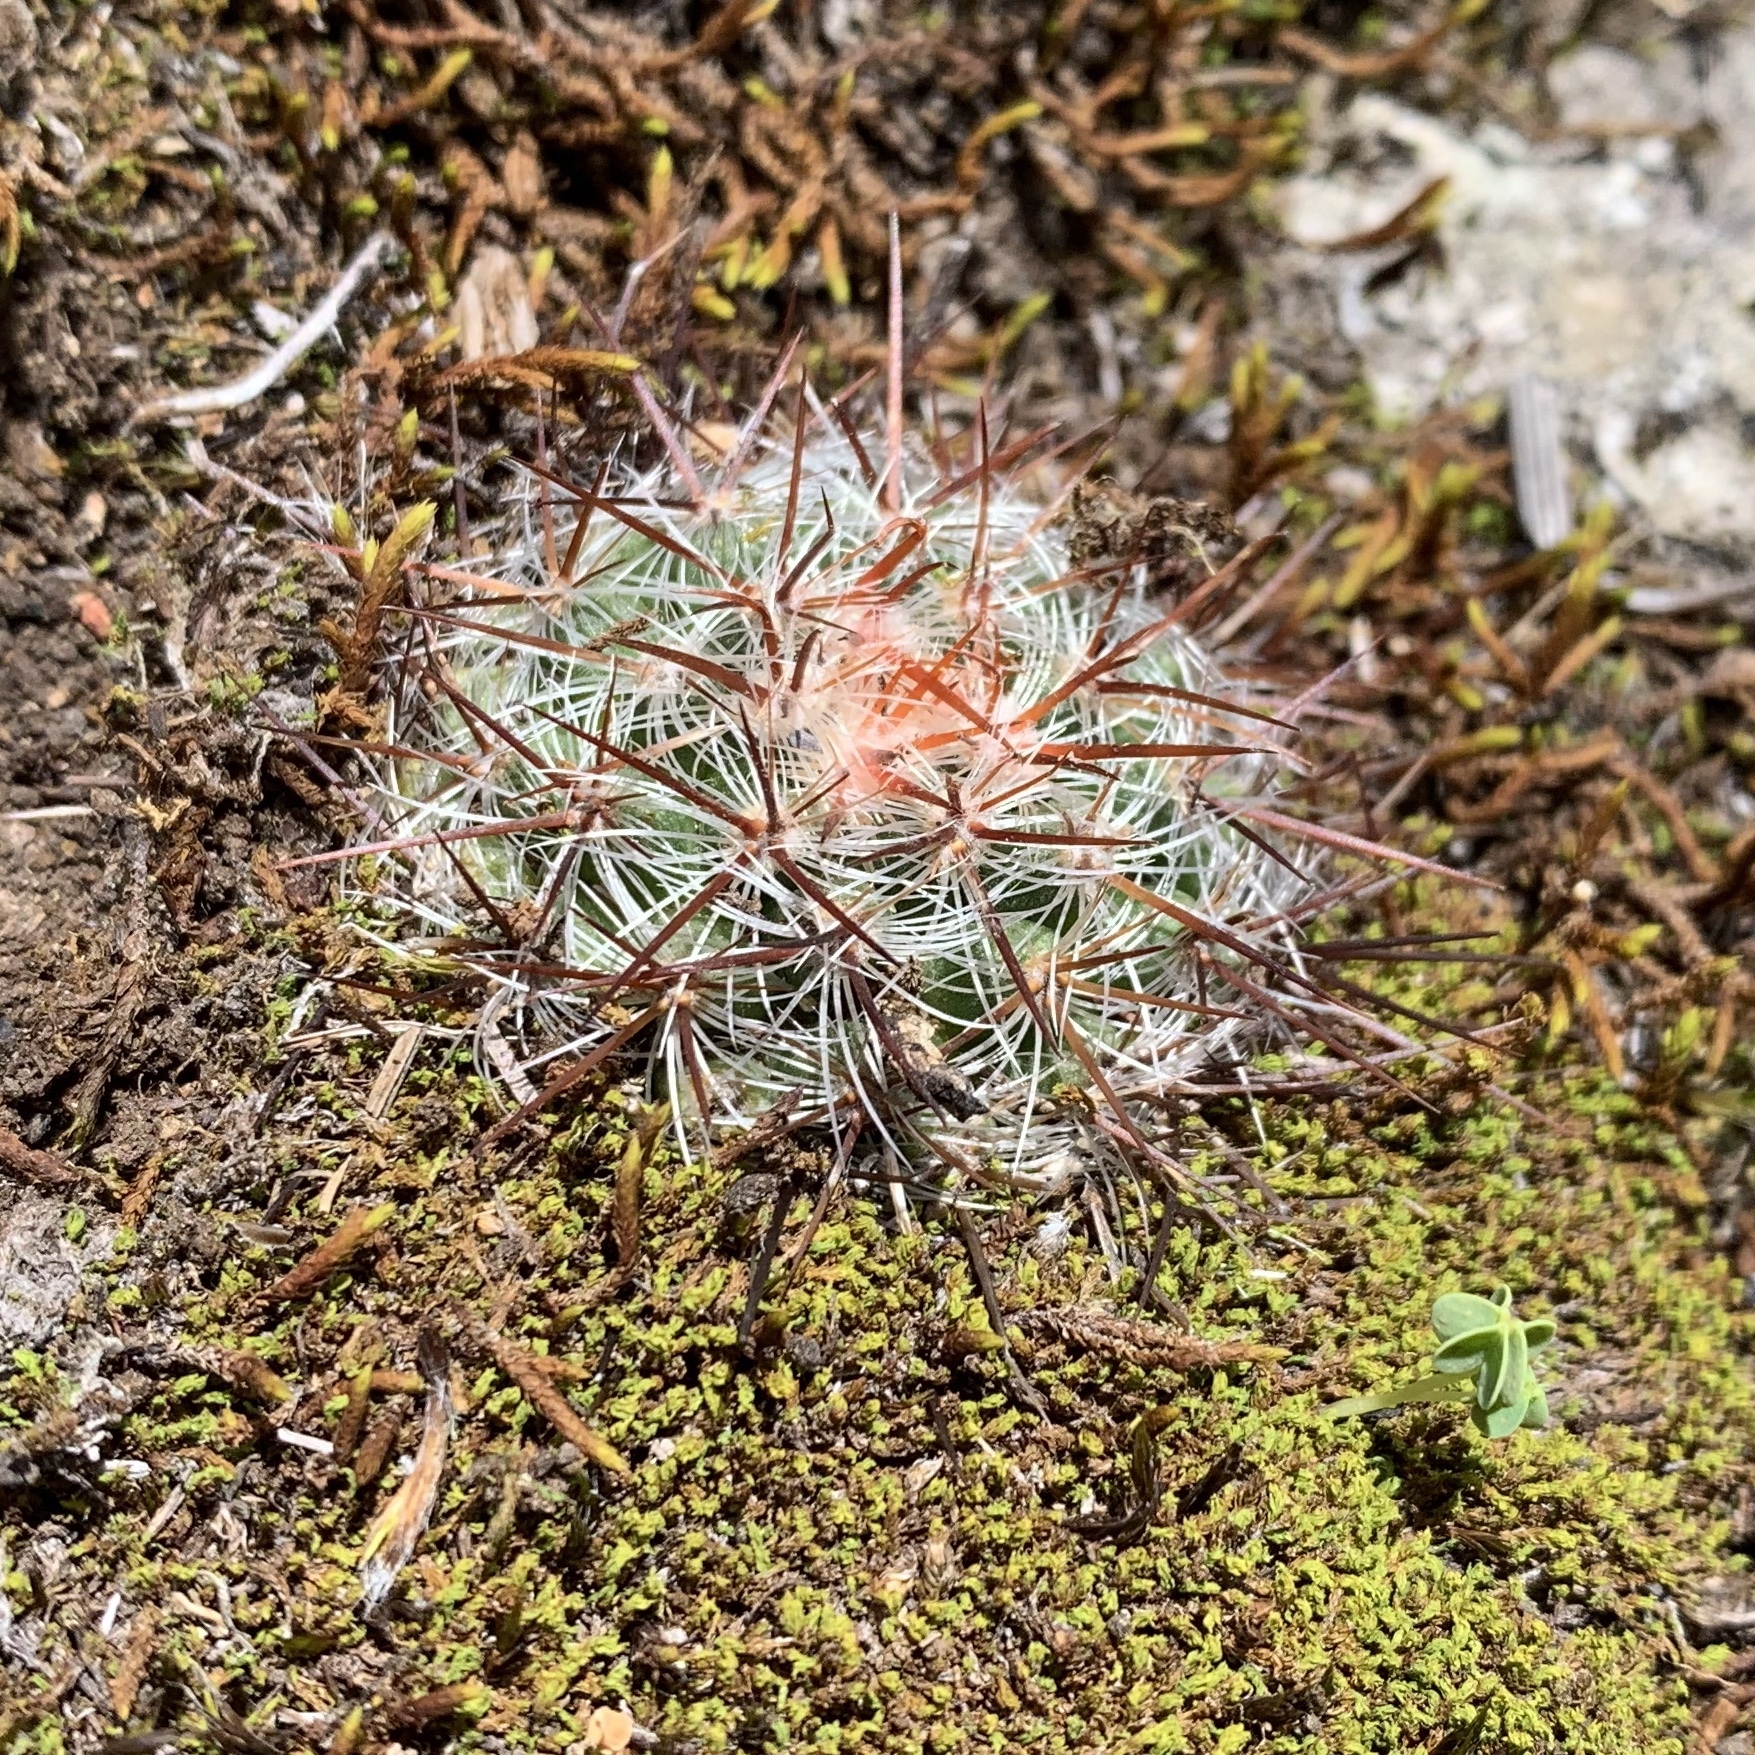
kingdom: Plantae
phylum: Tracheophyta
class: Magnoliopsida
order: Caryophyllales
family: Cactaceae
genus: Mammillaria
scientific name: Mammillaria deherdtiana
